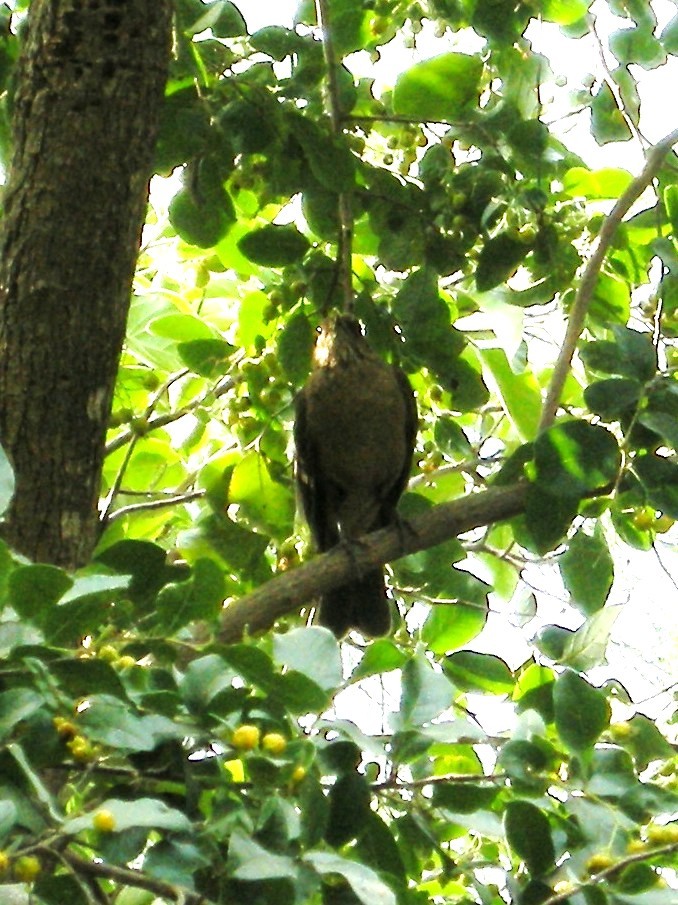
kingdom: Animalia
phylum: Chordata
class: Aves
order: Passeriformes
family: Turdidae
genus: Turdus
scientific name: Turdus grayi
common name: Clay-colored thrush
